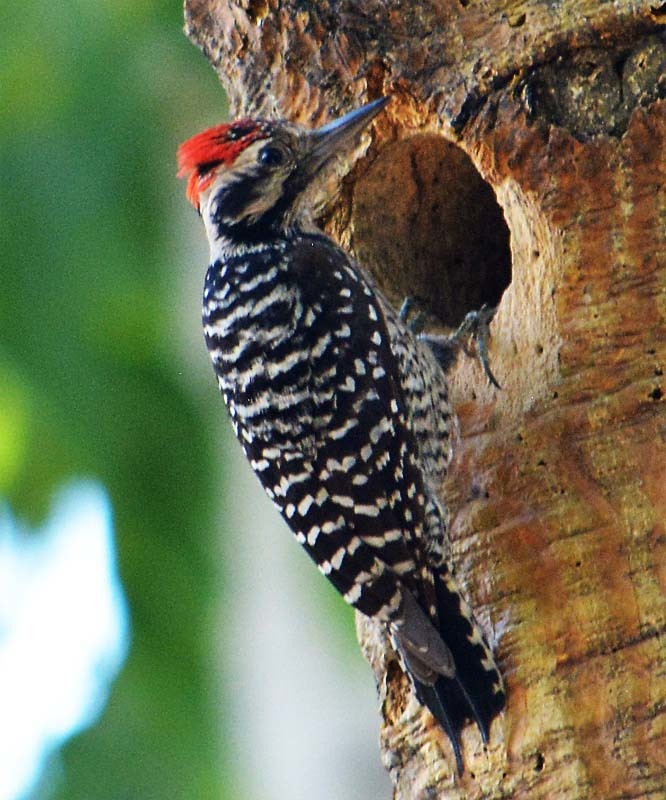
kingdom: Animalia
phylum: Chordata
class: Aves
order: Piciformes
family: Picidae
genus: Dryobates
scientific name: Dryobates scalaris
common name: Ladder-backed woodpecker
